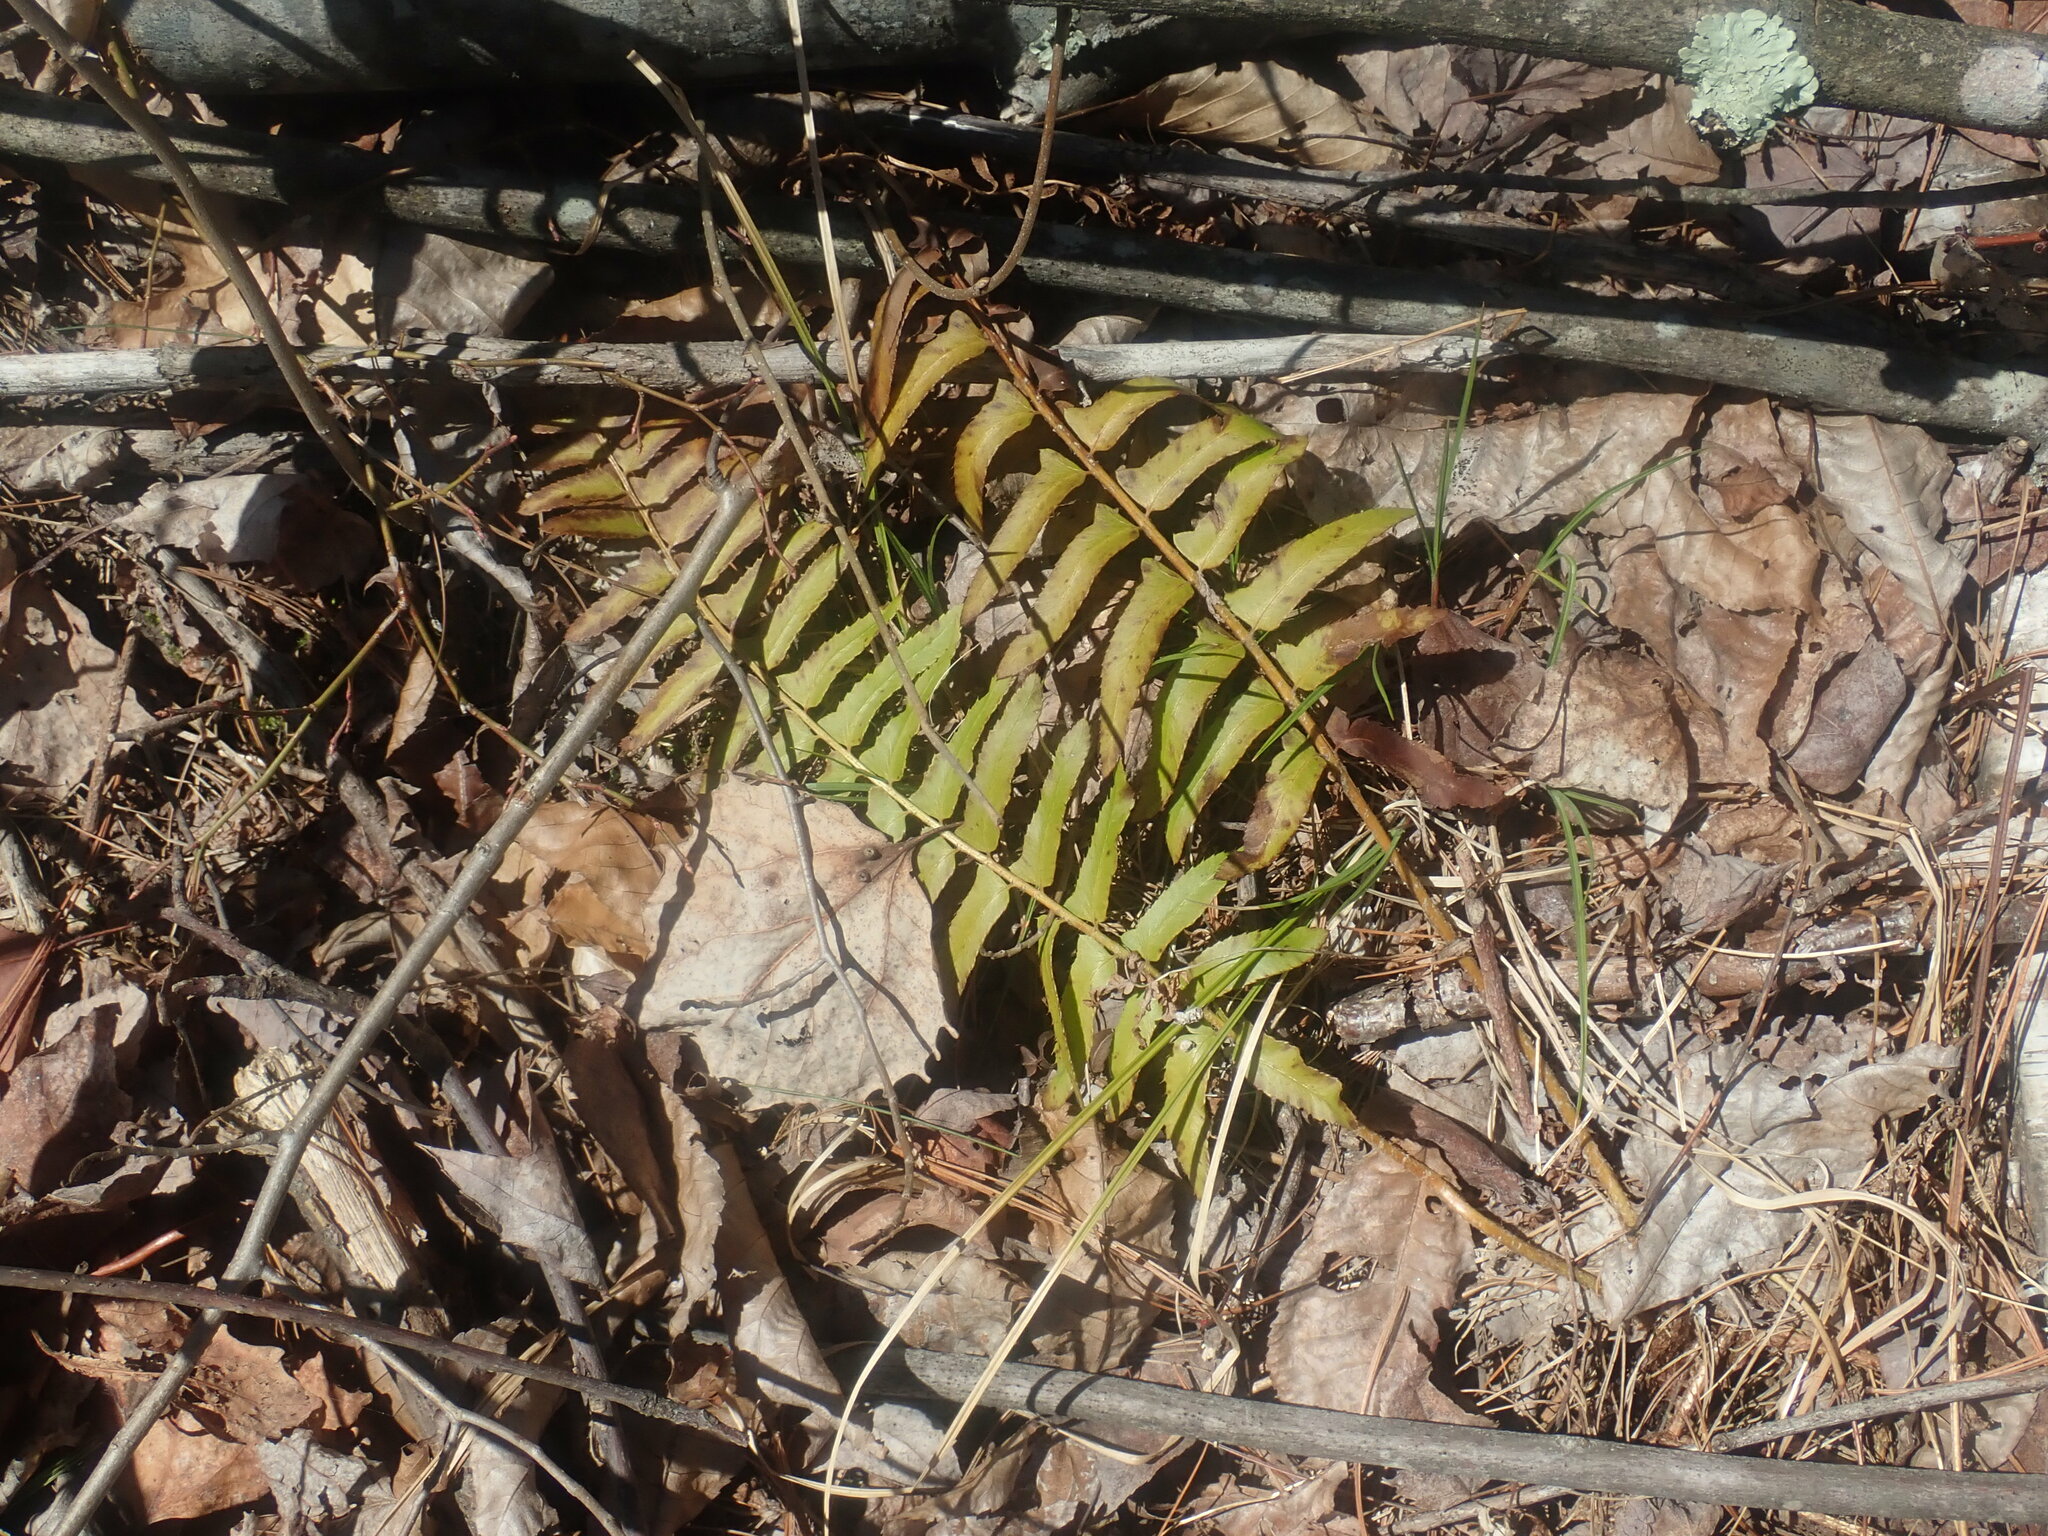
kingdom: Plantae
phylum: Tracheophyta
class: Polypodiopsida
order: Polypodiales
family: Dryopteridaceae
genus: Polystichum
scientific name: Polystichum acrostichoides
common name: Christmas fern
